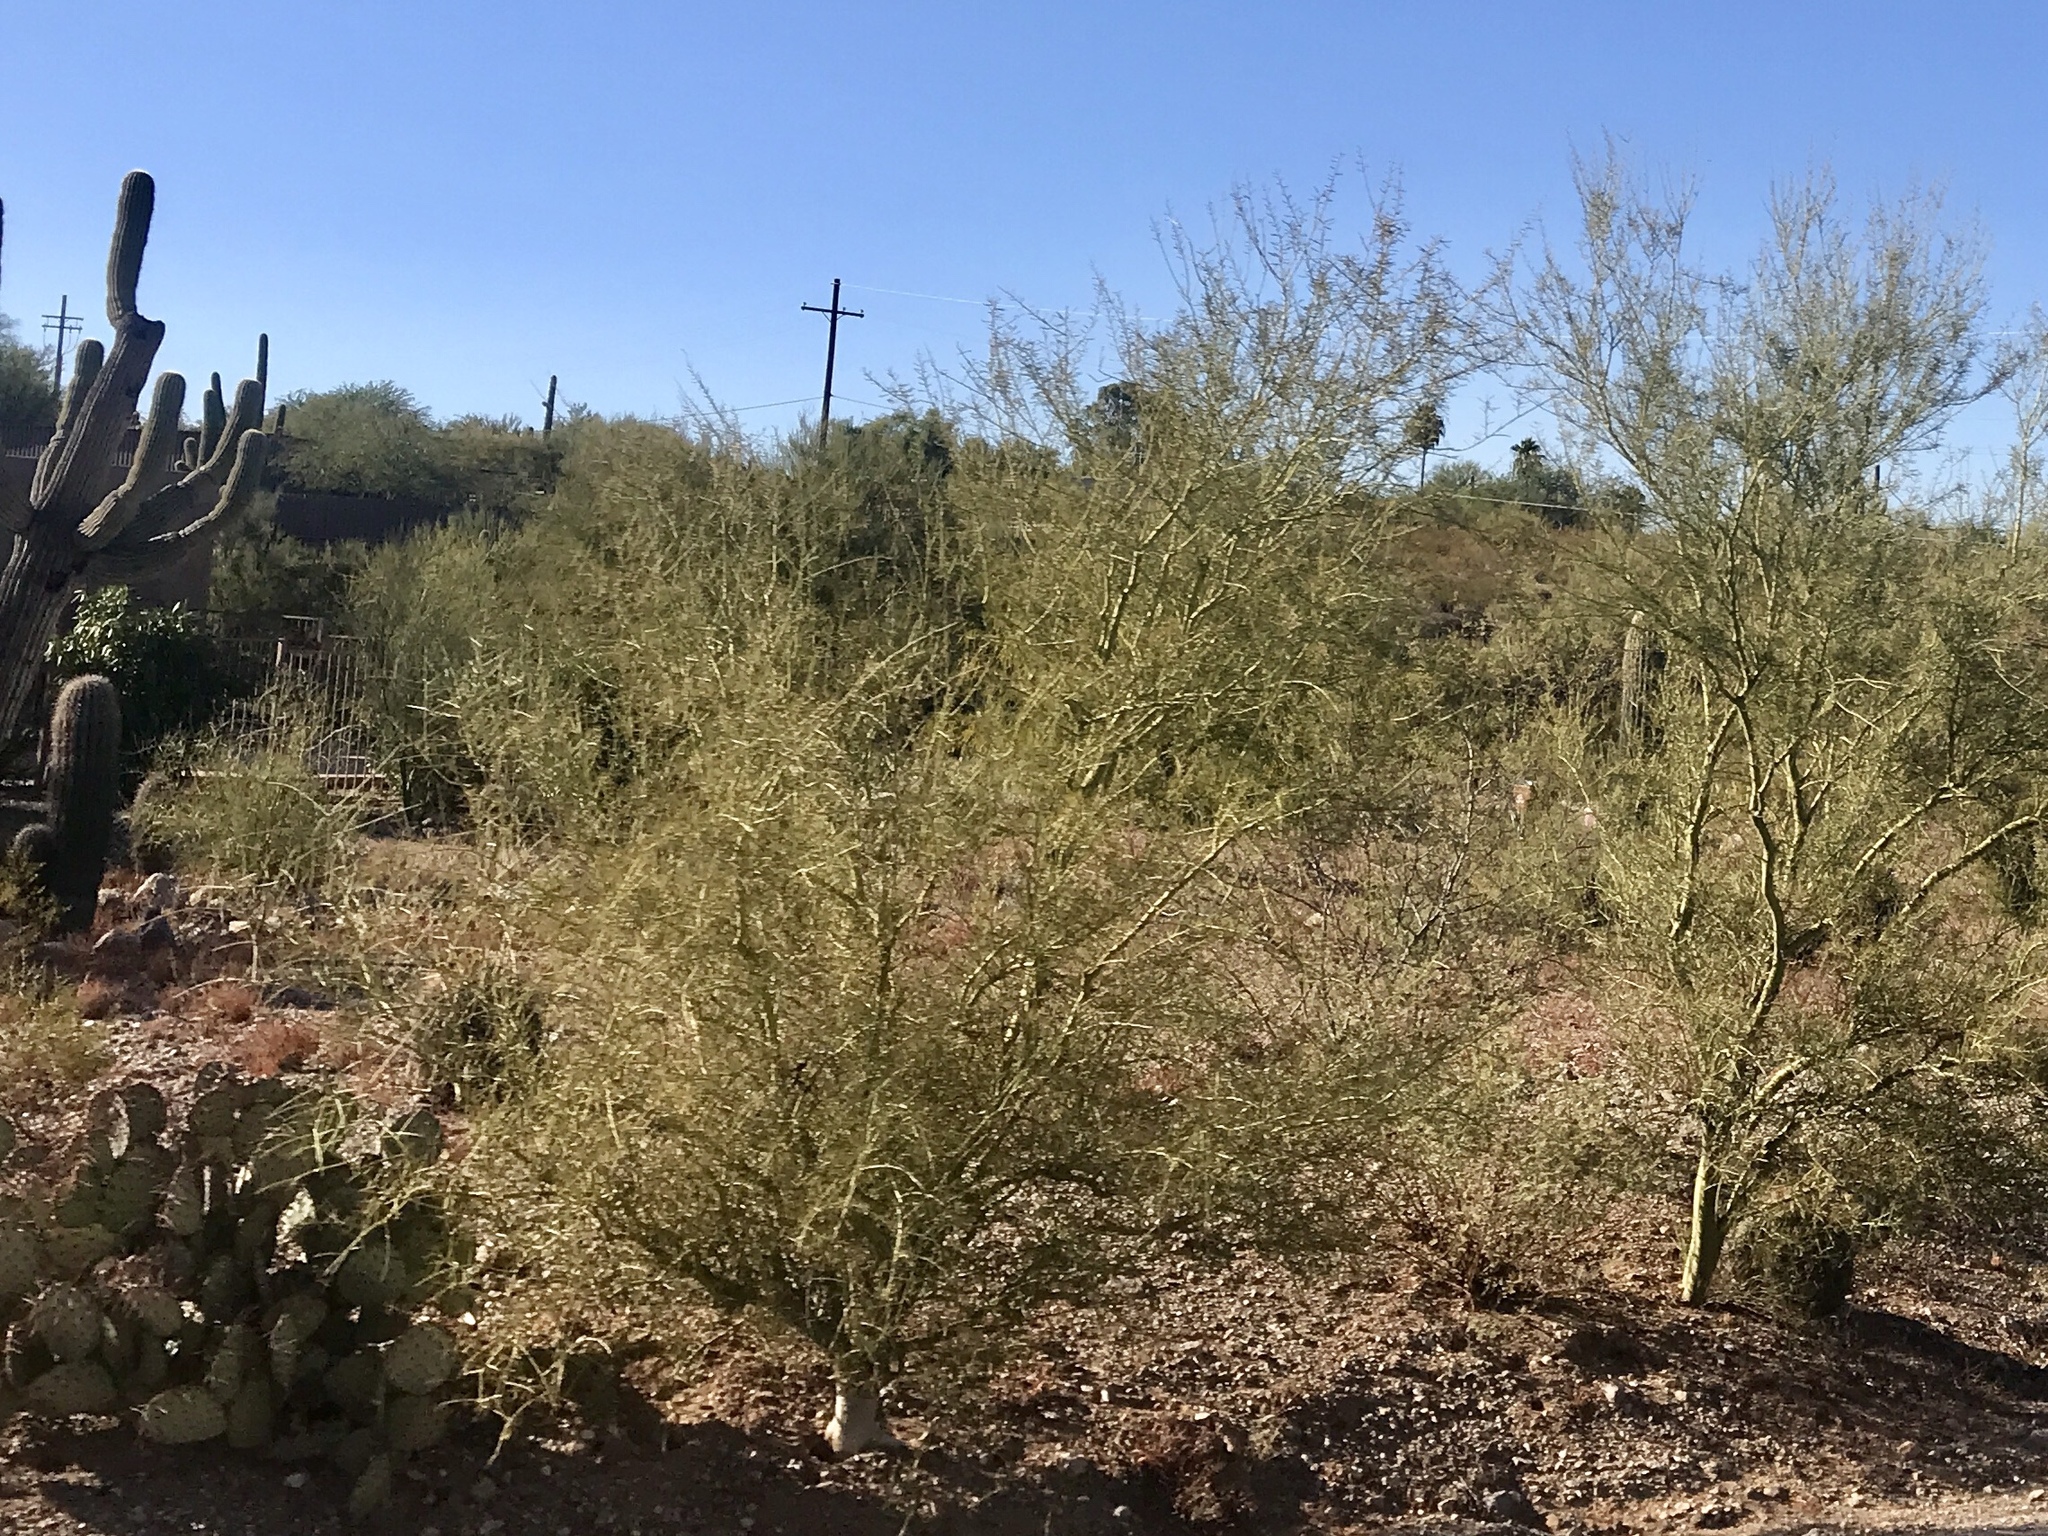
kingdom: Plantae
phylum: Tracheophyta
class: Magnoliopsida
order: Fabales
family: Fabaceae
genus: Parkinsonia
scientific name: Parkinsonia microphylla
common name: Yellow paloverde
